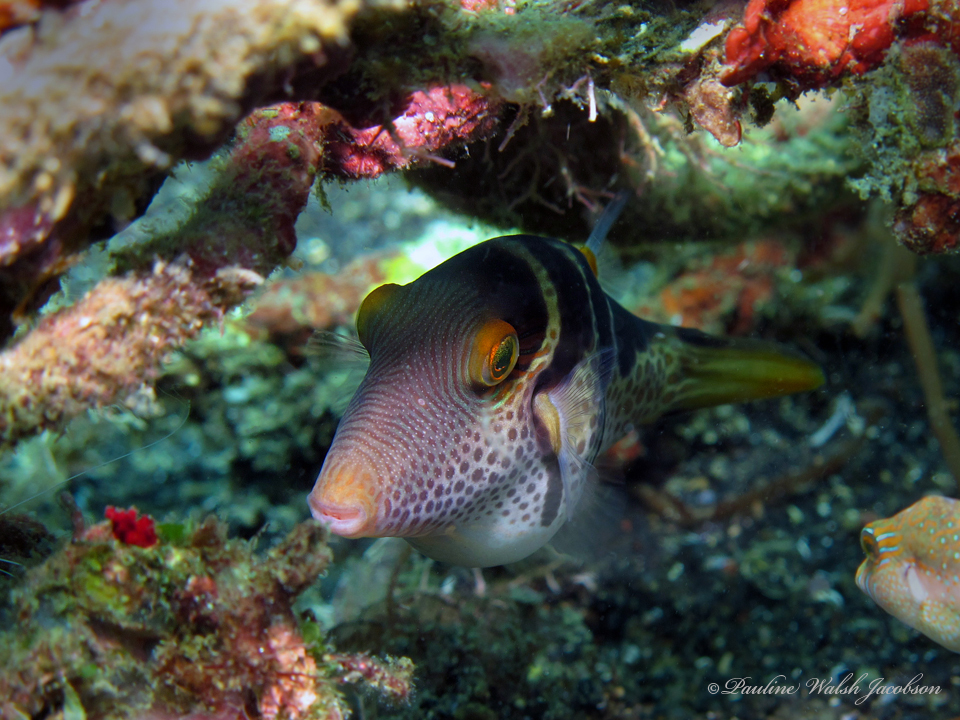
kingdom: Animalia
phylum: Chordata
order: Tetraodontiformes
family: Tetraodontidae
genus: Canthigaster
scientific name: Canthigaster valentini
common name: Banded toby
